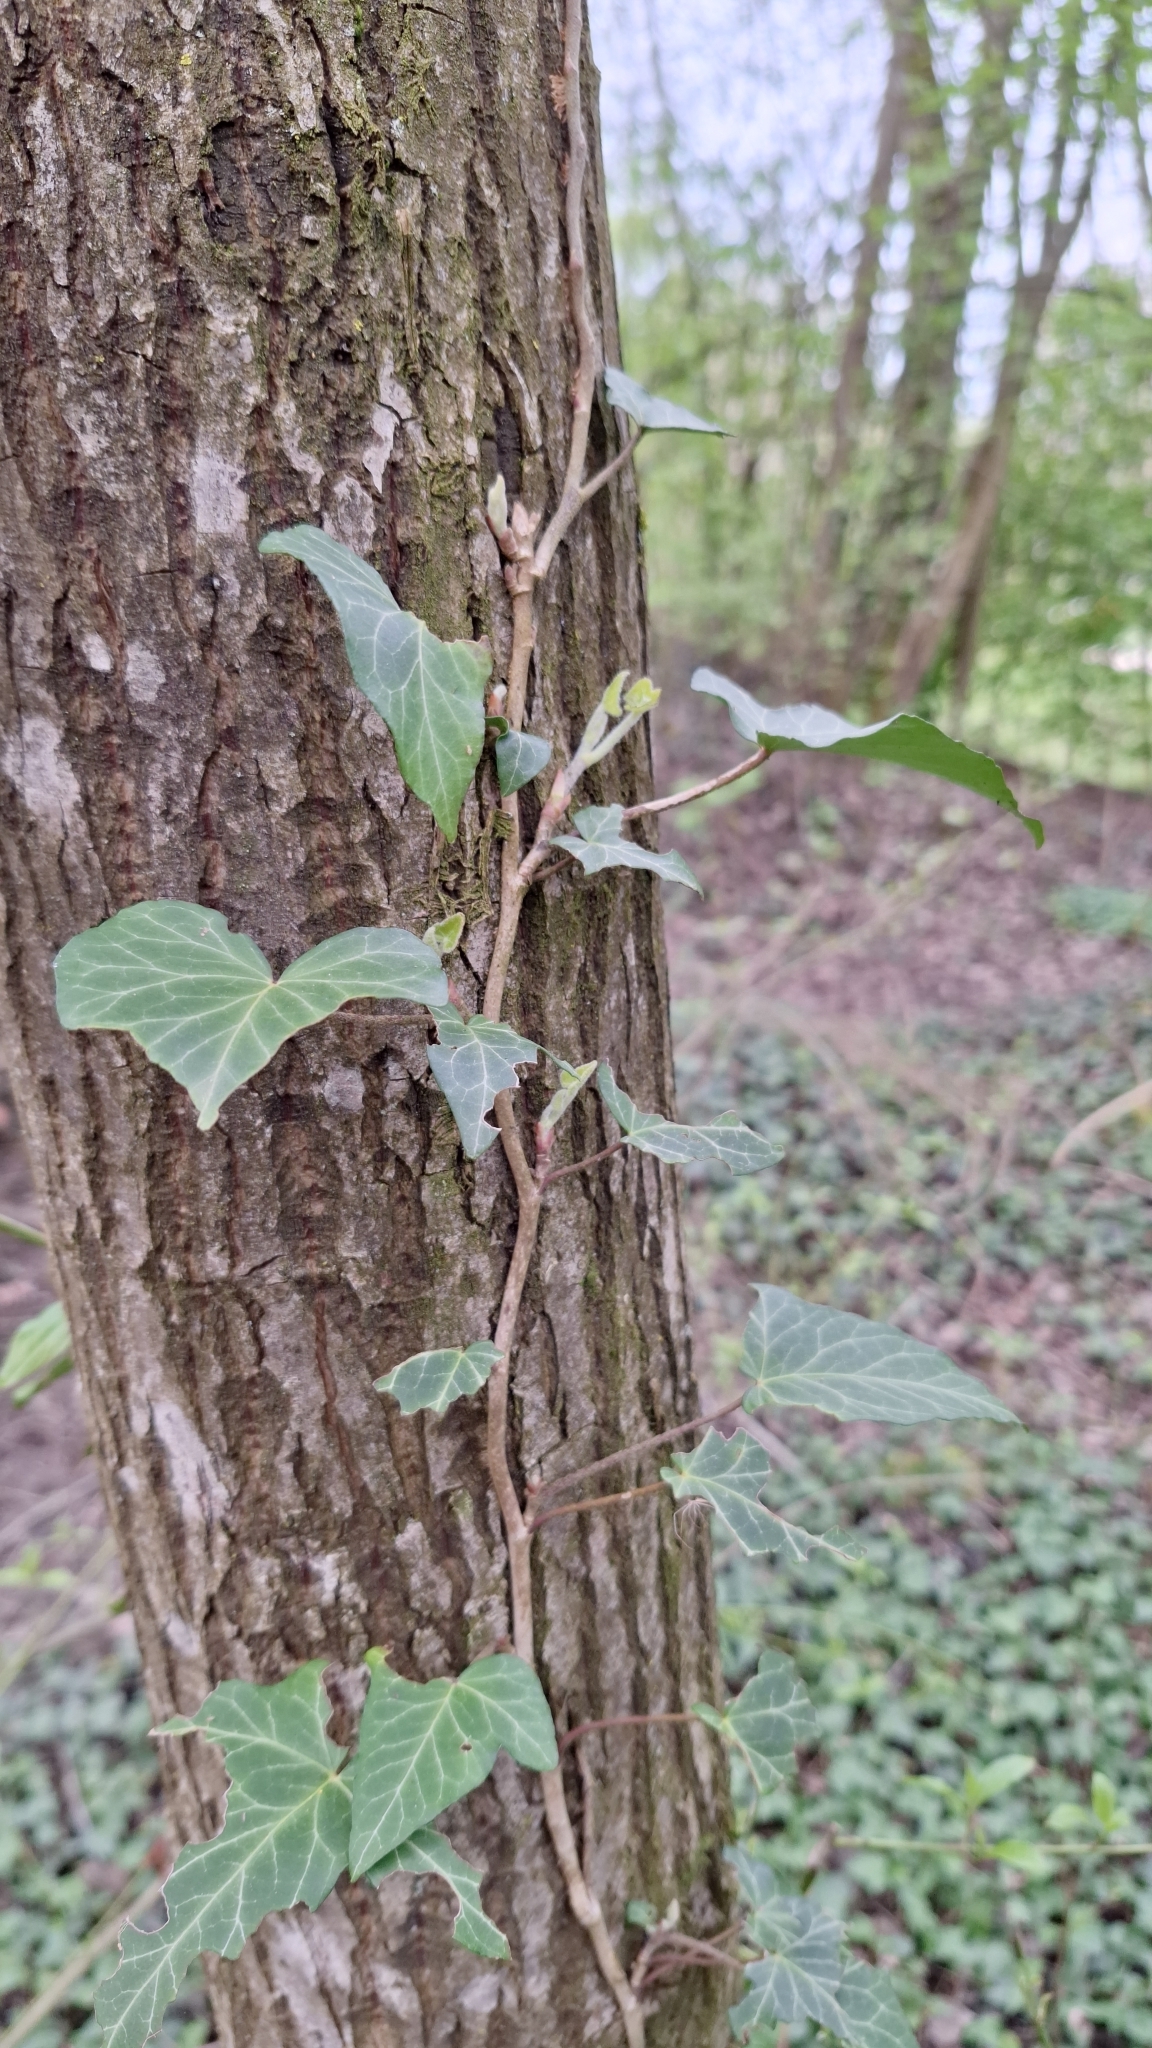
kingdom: Plantae
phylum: Tracheophyta
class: Magnoliopsida
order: Apiales
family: Araliaceae
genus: Hedera
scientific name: Hedera helix
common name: Ivy
